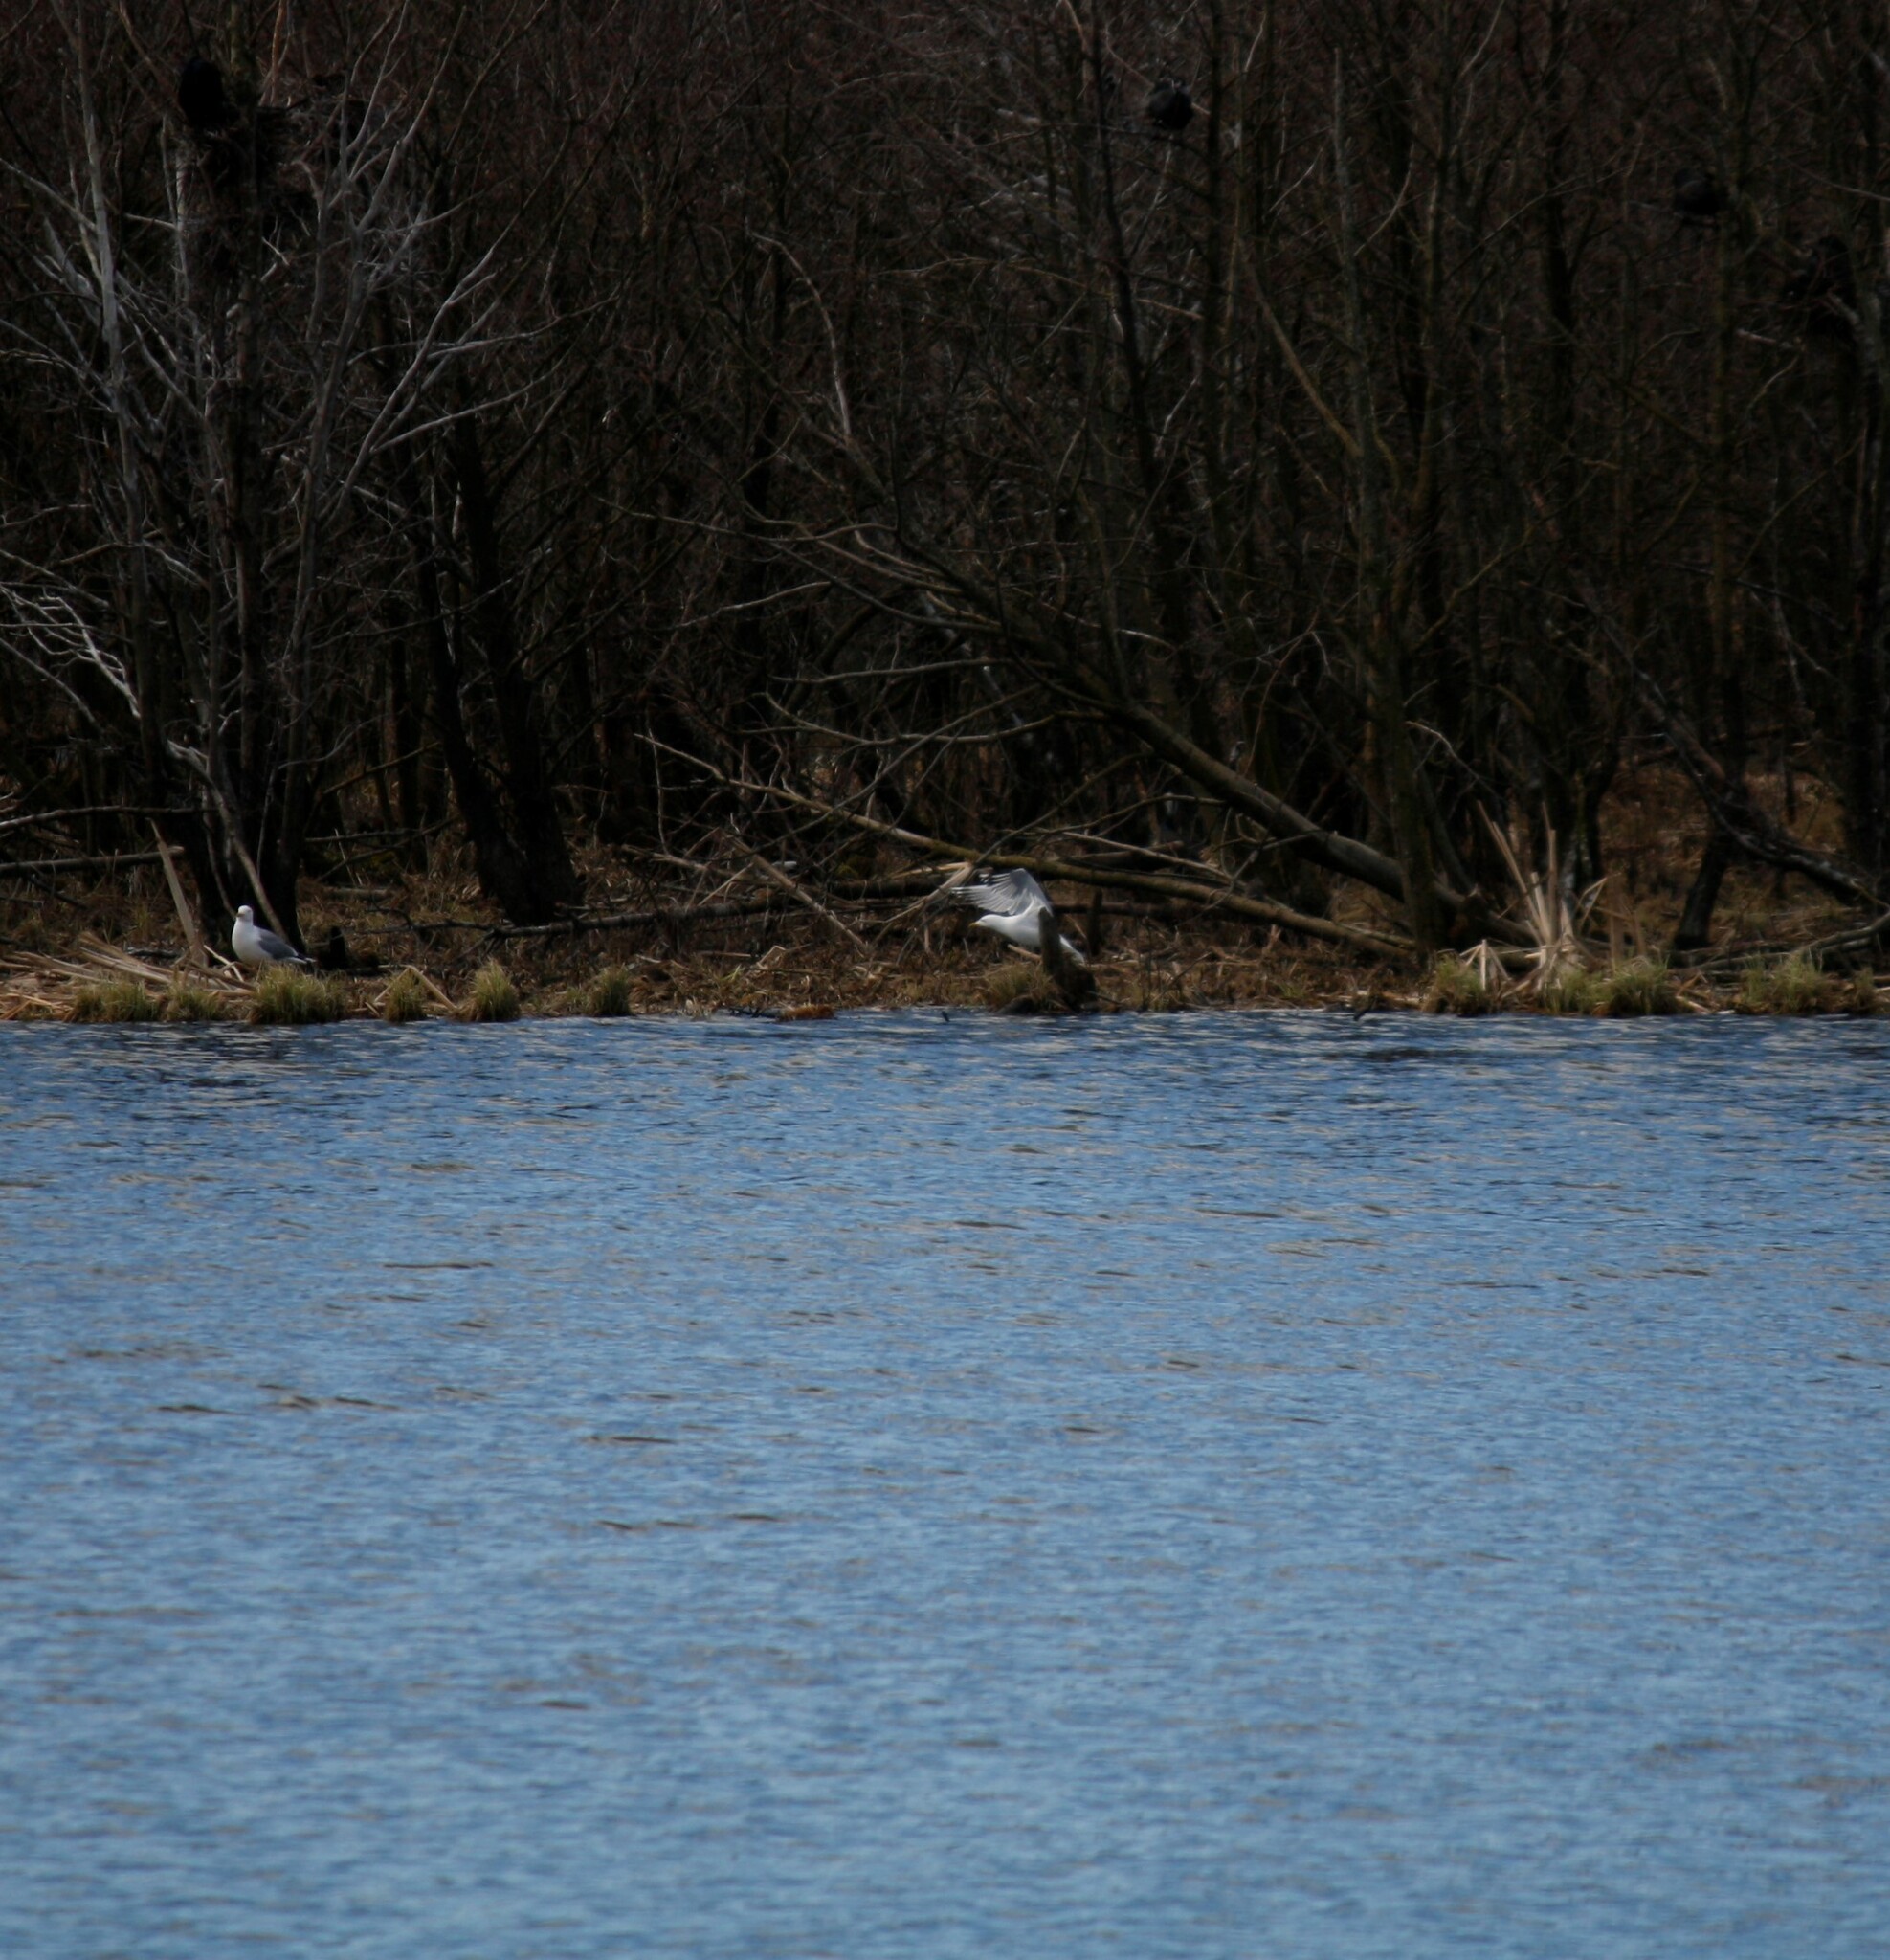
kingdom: Animalia
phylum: Chordata
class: Aves
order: Charadriiformes
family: Laridae
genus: Larus
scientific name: Larus argentatus
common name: Herring gull
